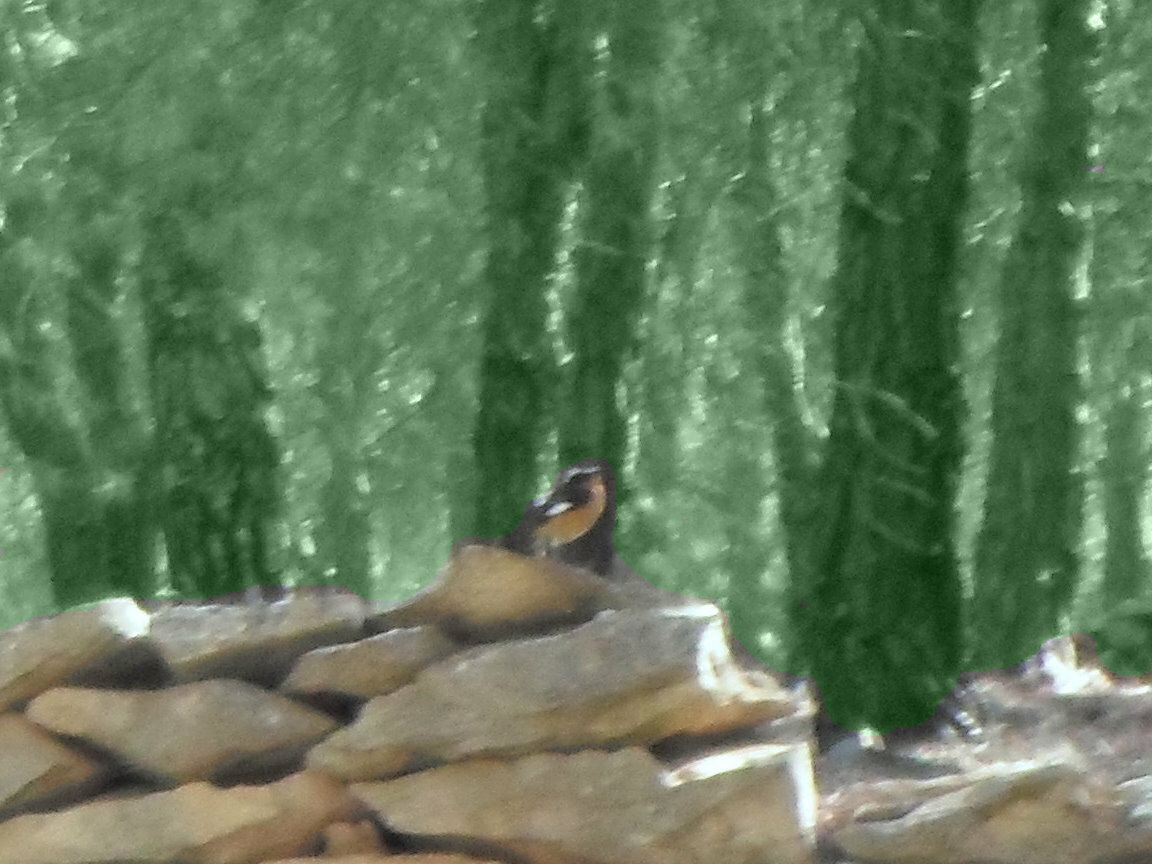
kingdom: Animalia
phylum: Chordata
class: Aves
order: Passeriformes
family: Muscicapidae
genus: Phoenicurus
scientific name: Phoenicurus moussieri
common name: Moussier's redstart
